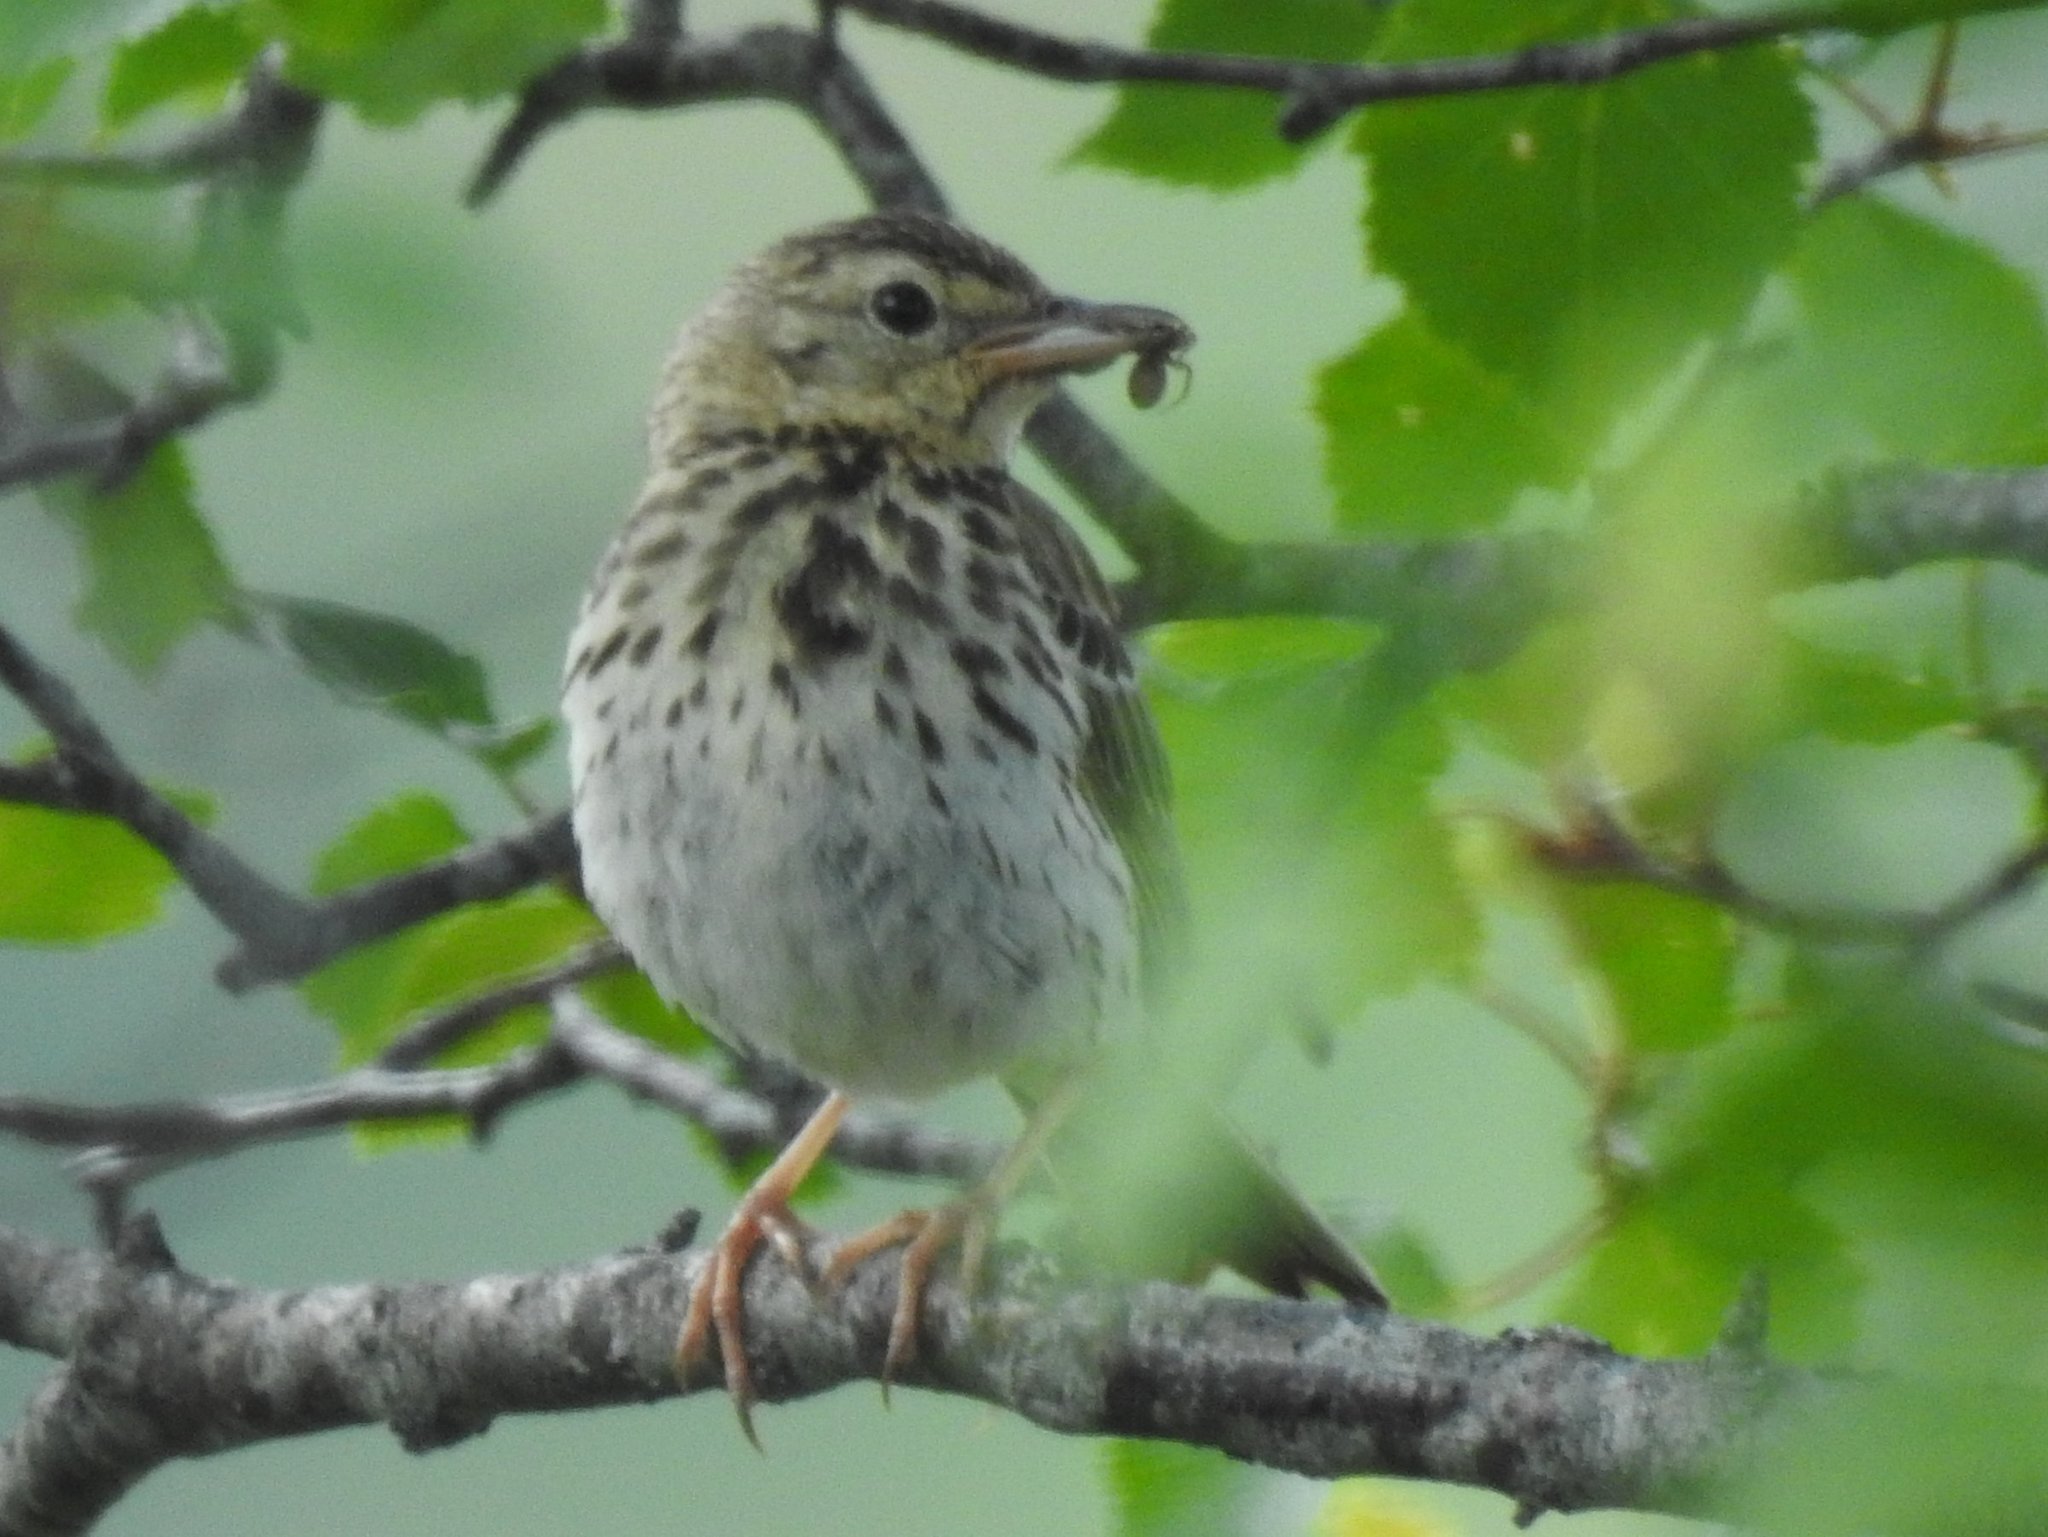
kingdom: Animalia
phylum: Chordata
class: Aves
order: Passeriformes
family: Motacillidae
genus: Anthus
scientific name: Anthus trivialis
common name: Tree pipit
